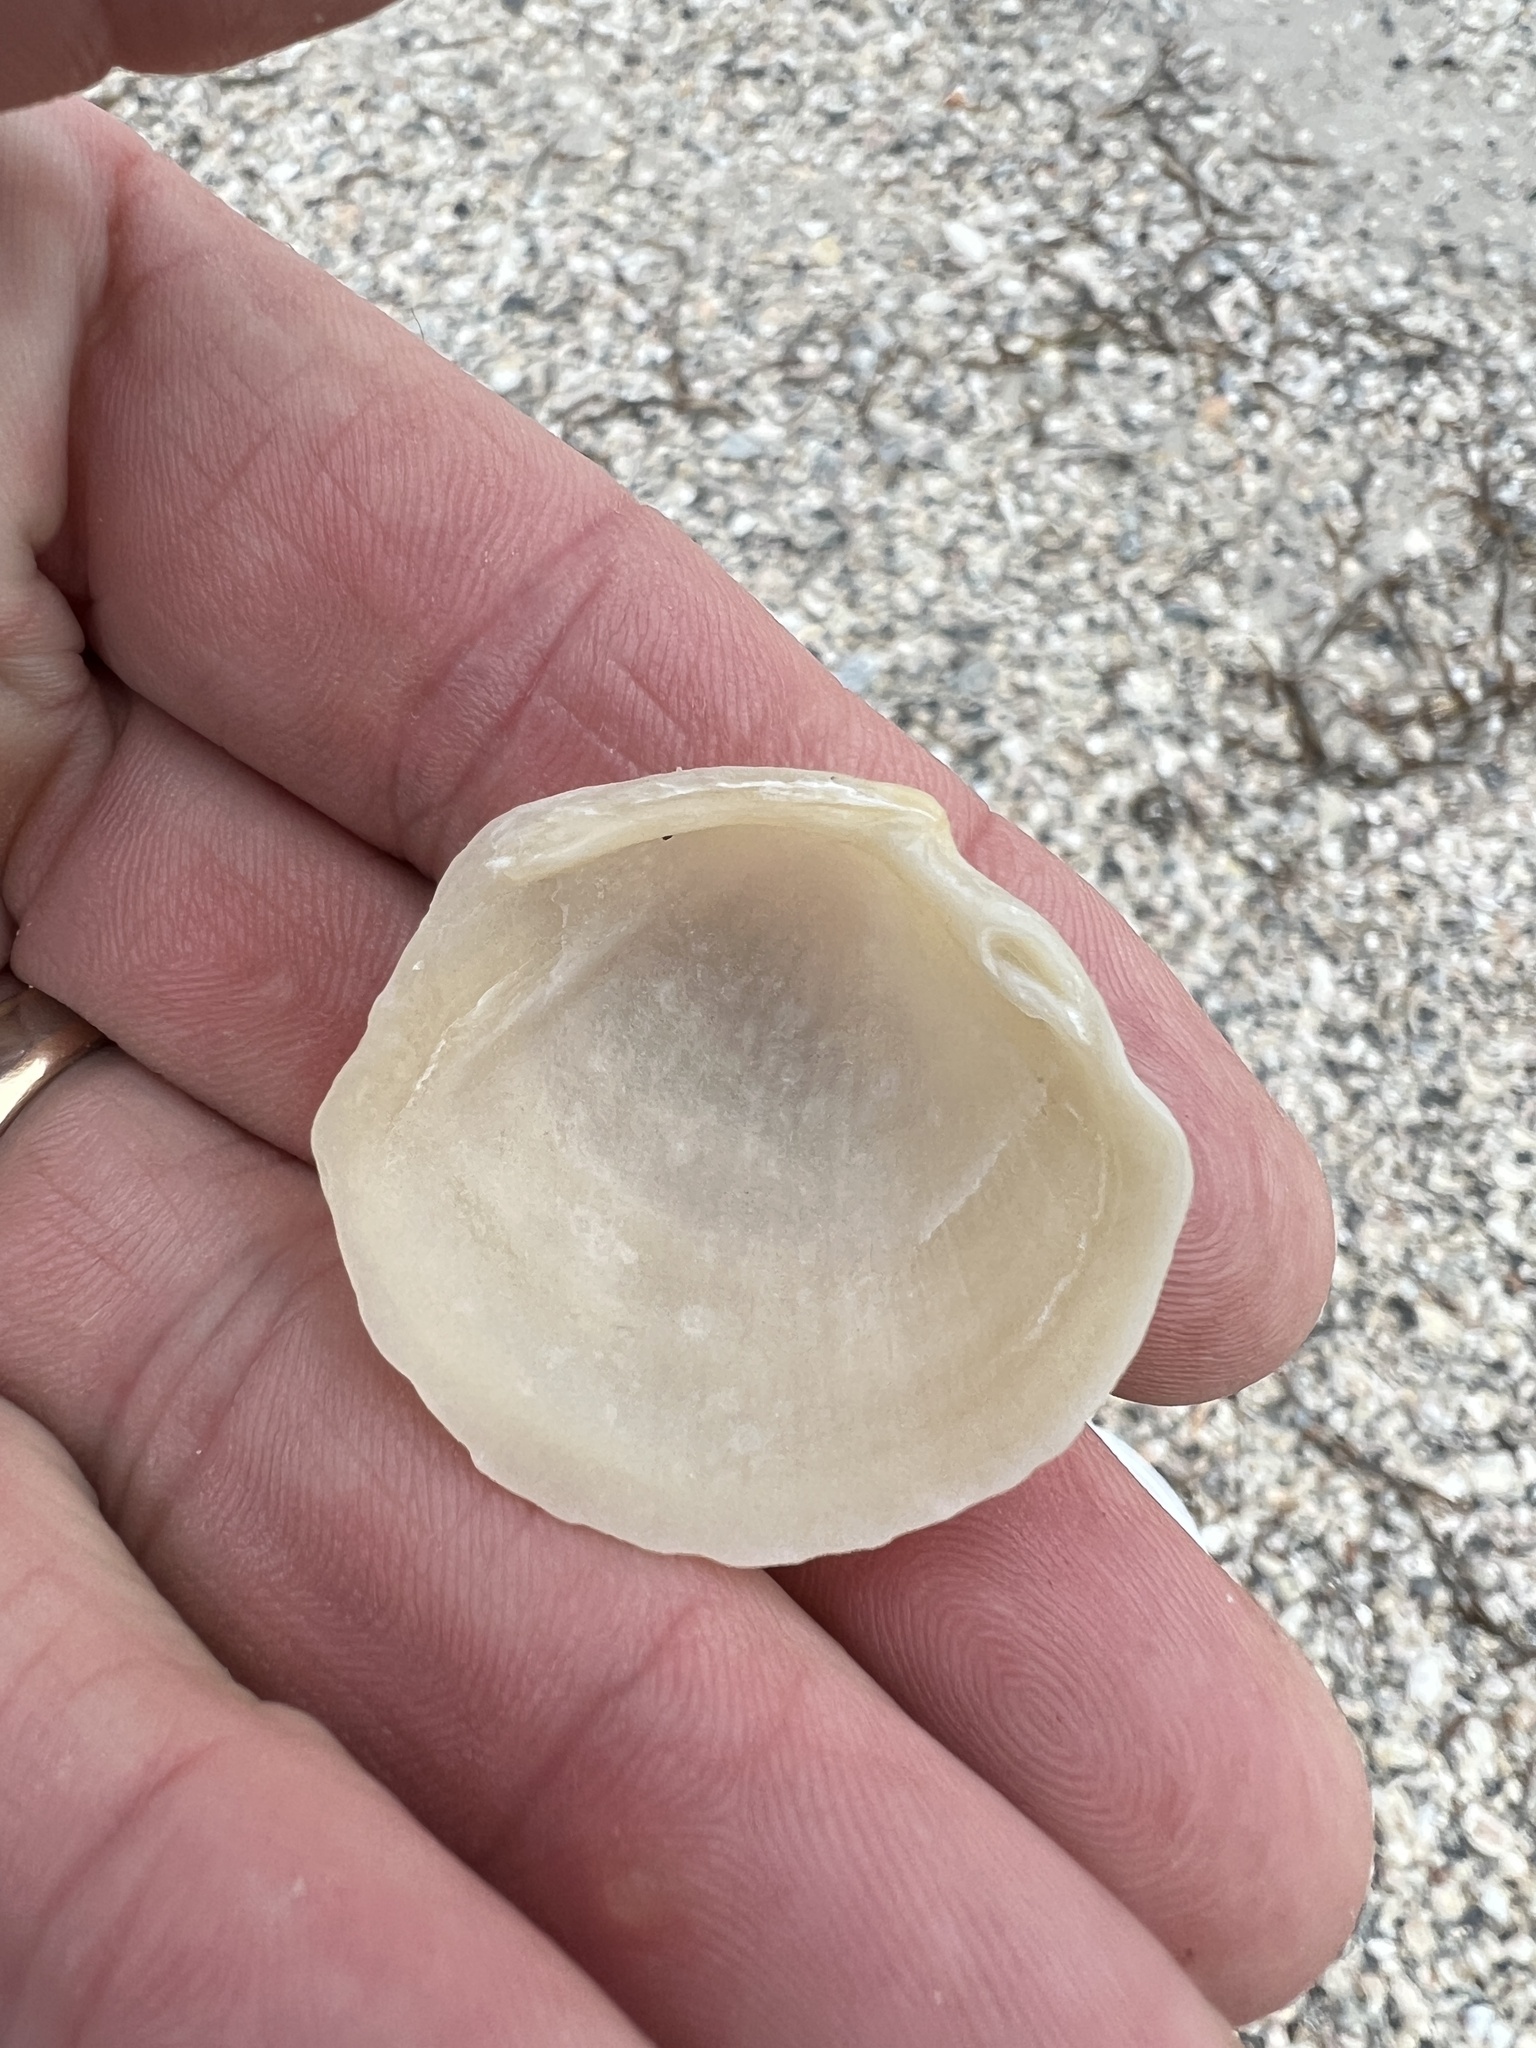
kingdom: Animalia
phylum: Mollusca
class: Bivalvia
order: Lucinida
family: Lucinidae
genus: Phacoides
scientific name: Phacoides pectinatus
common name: Thick lucine
